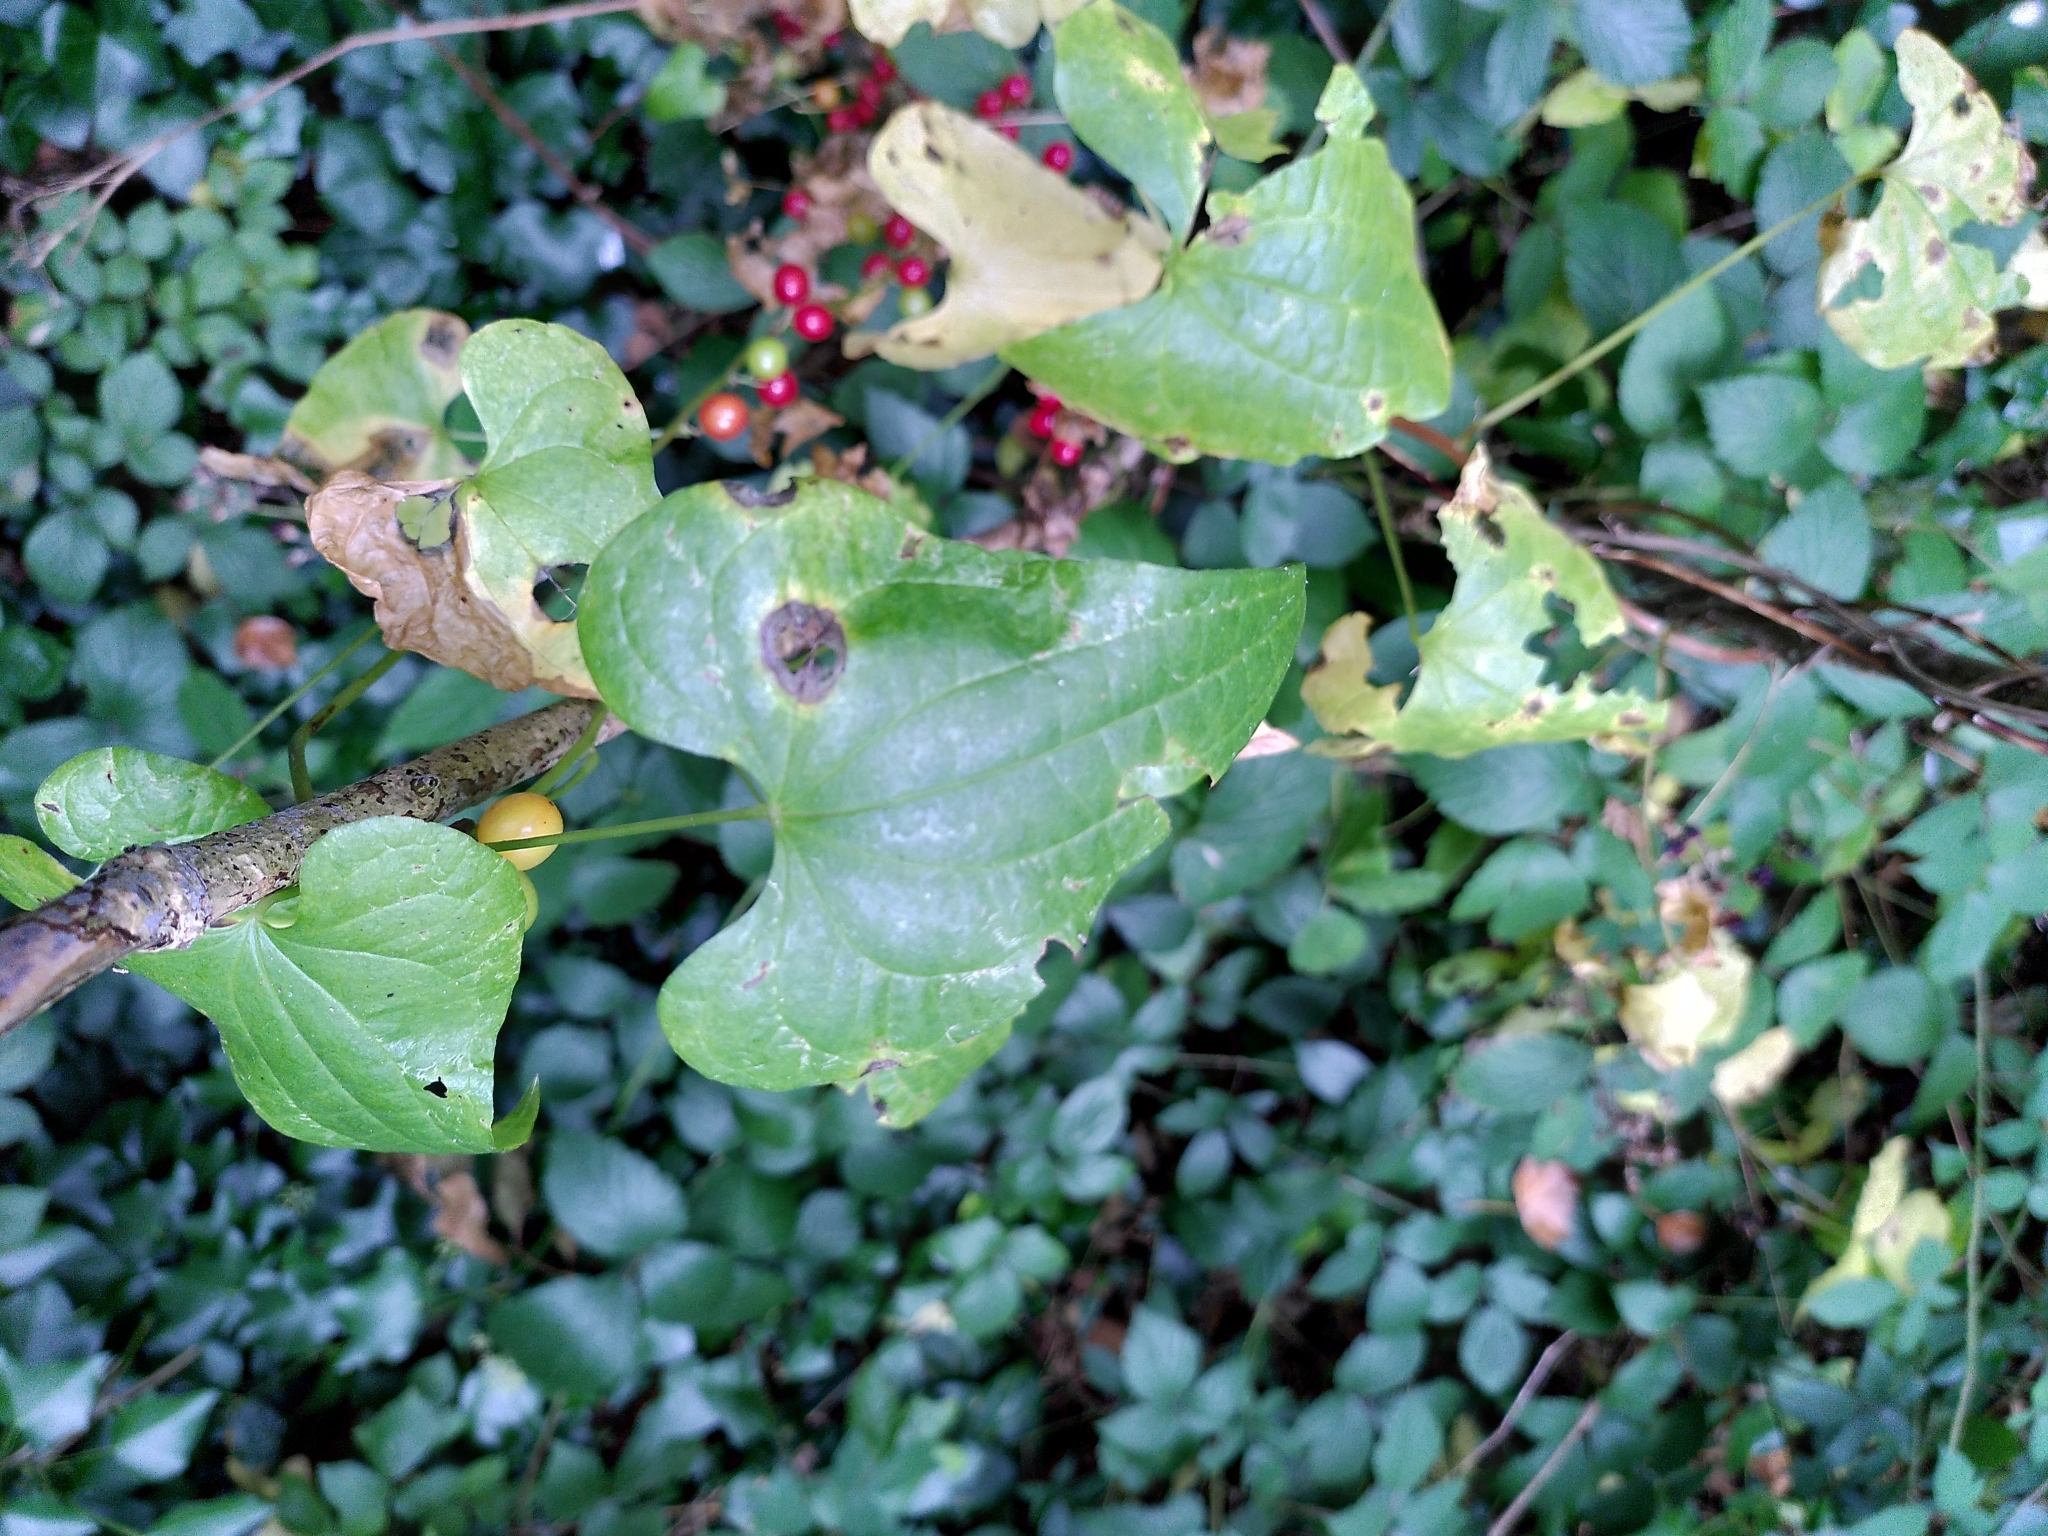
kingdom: Plantae
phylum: Tracheophyta
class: Liliopsida
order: Dioscoreales
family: Dioscoreaceae
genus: Dioscorea
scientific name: Dioscorea communis
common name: Black-bindweed
